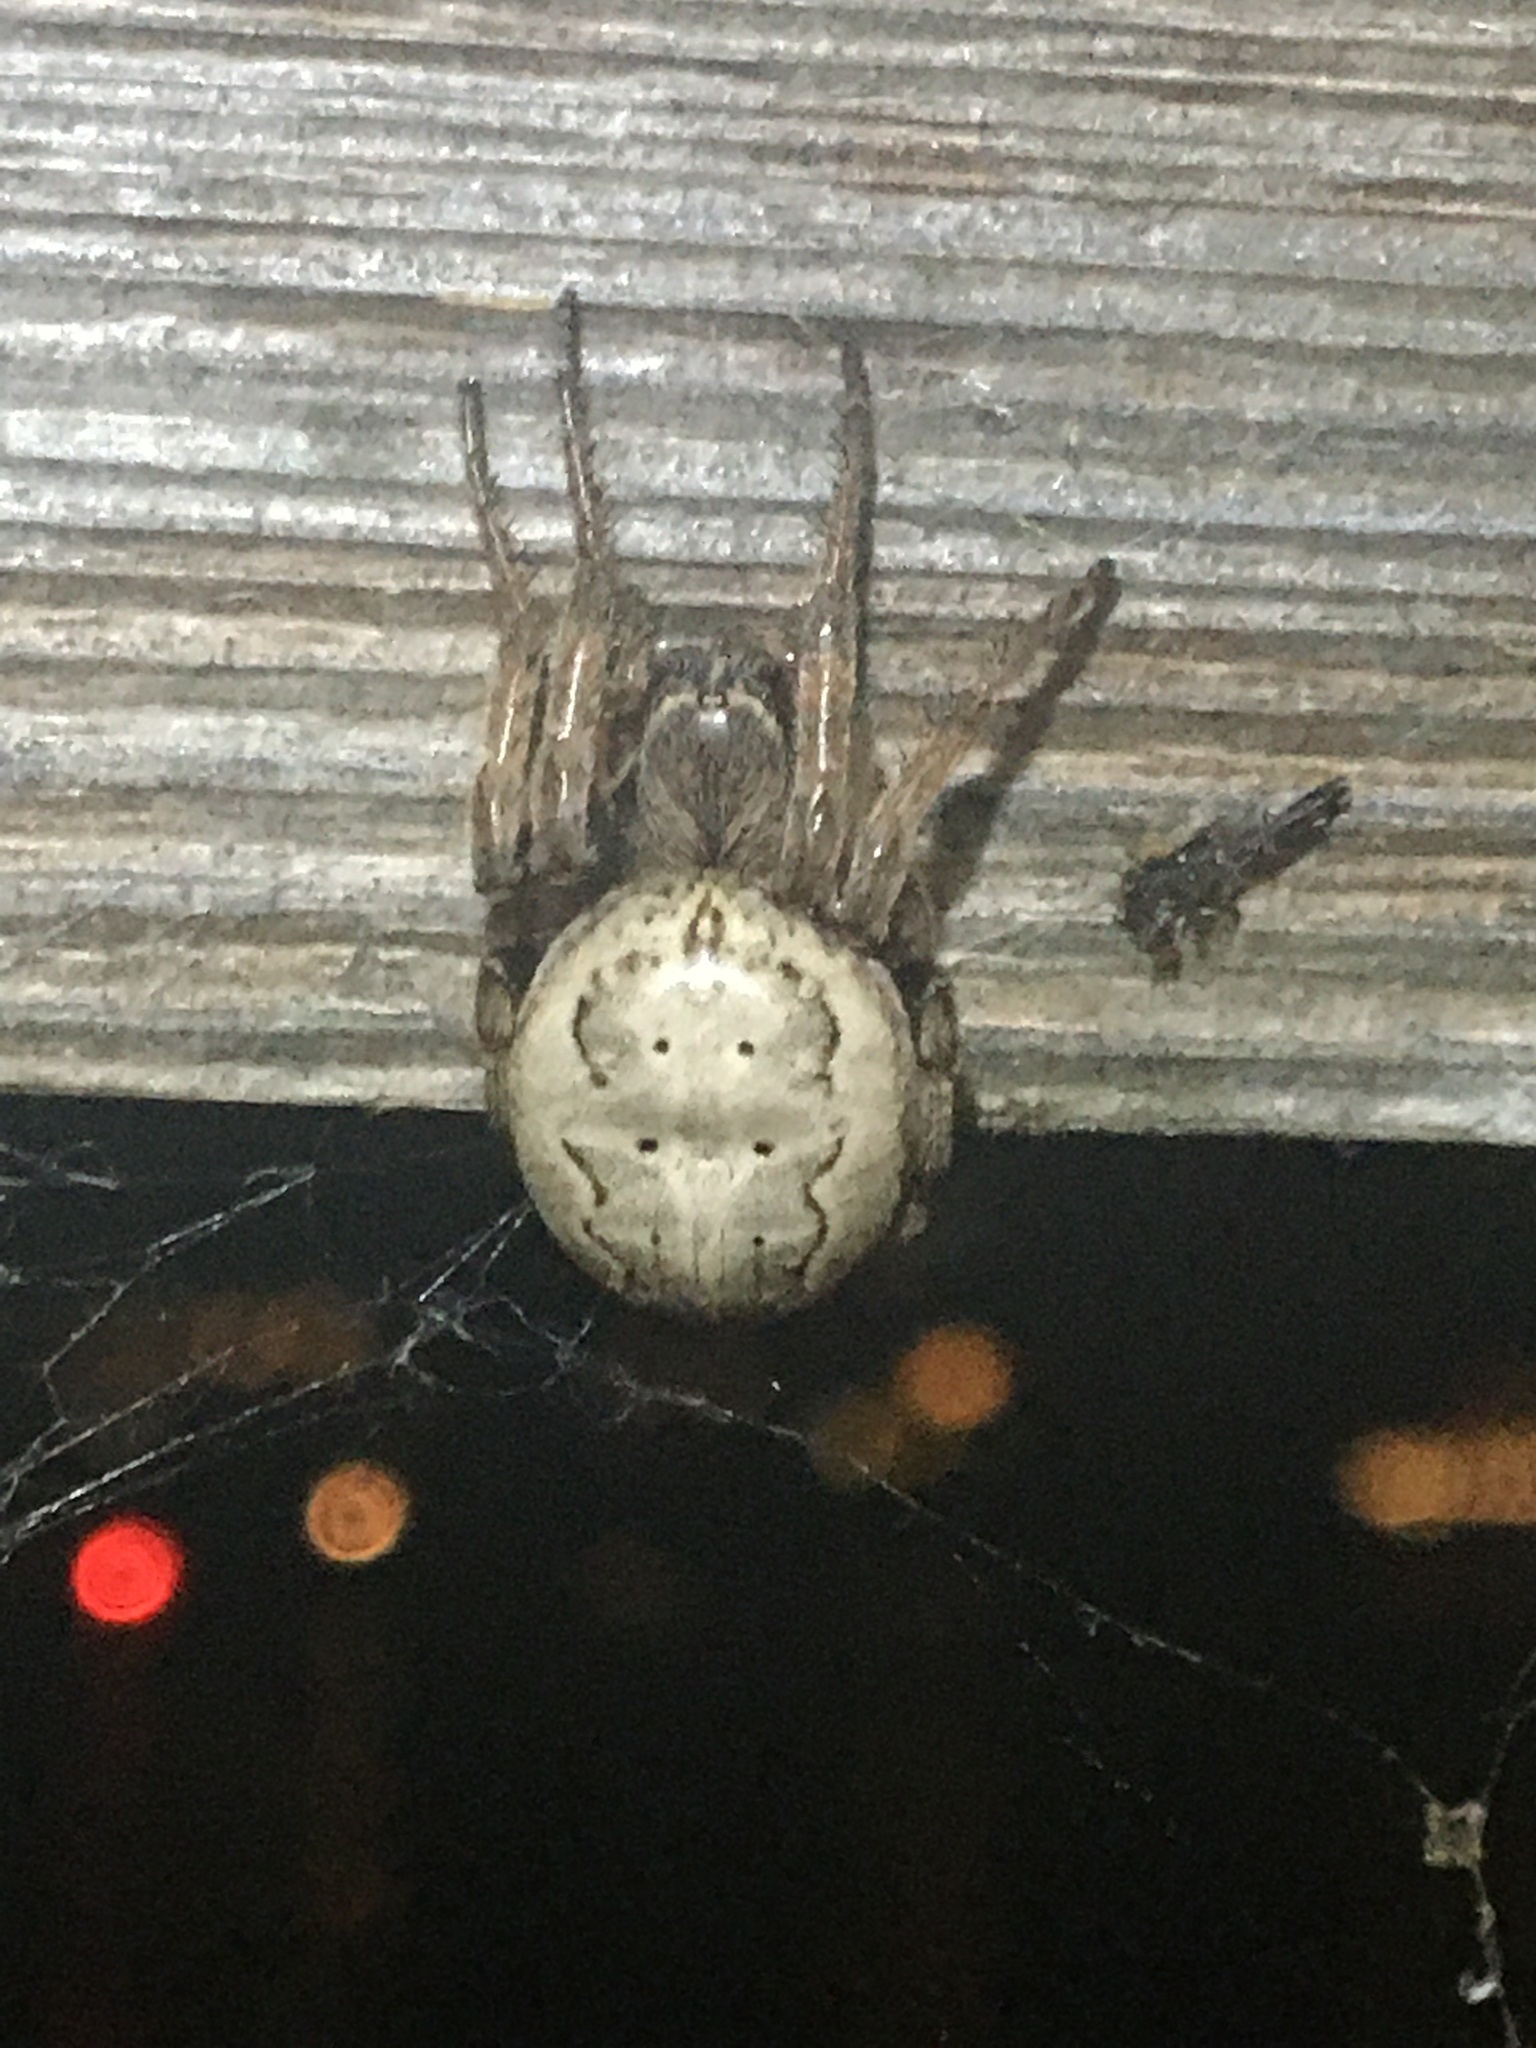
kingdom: Animalia
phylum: Arthropoda
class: Arachnida
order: Araneae
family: Araneidae
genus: Larinioides
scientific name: Larinioides cornutus
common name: Furrow orbweaver
